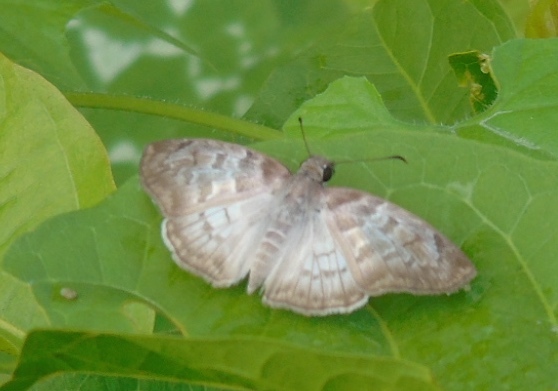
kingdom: Animalia
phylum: Arthropoda
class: Insecta
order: Lepidoptera
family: Hesperiidae
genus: Mylon
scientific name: Mylon pelopidas
